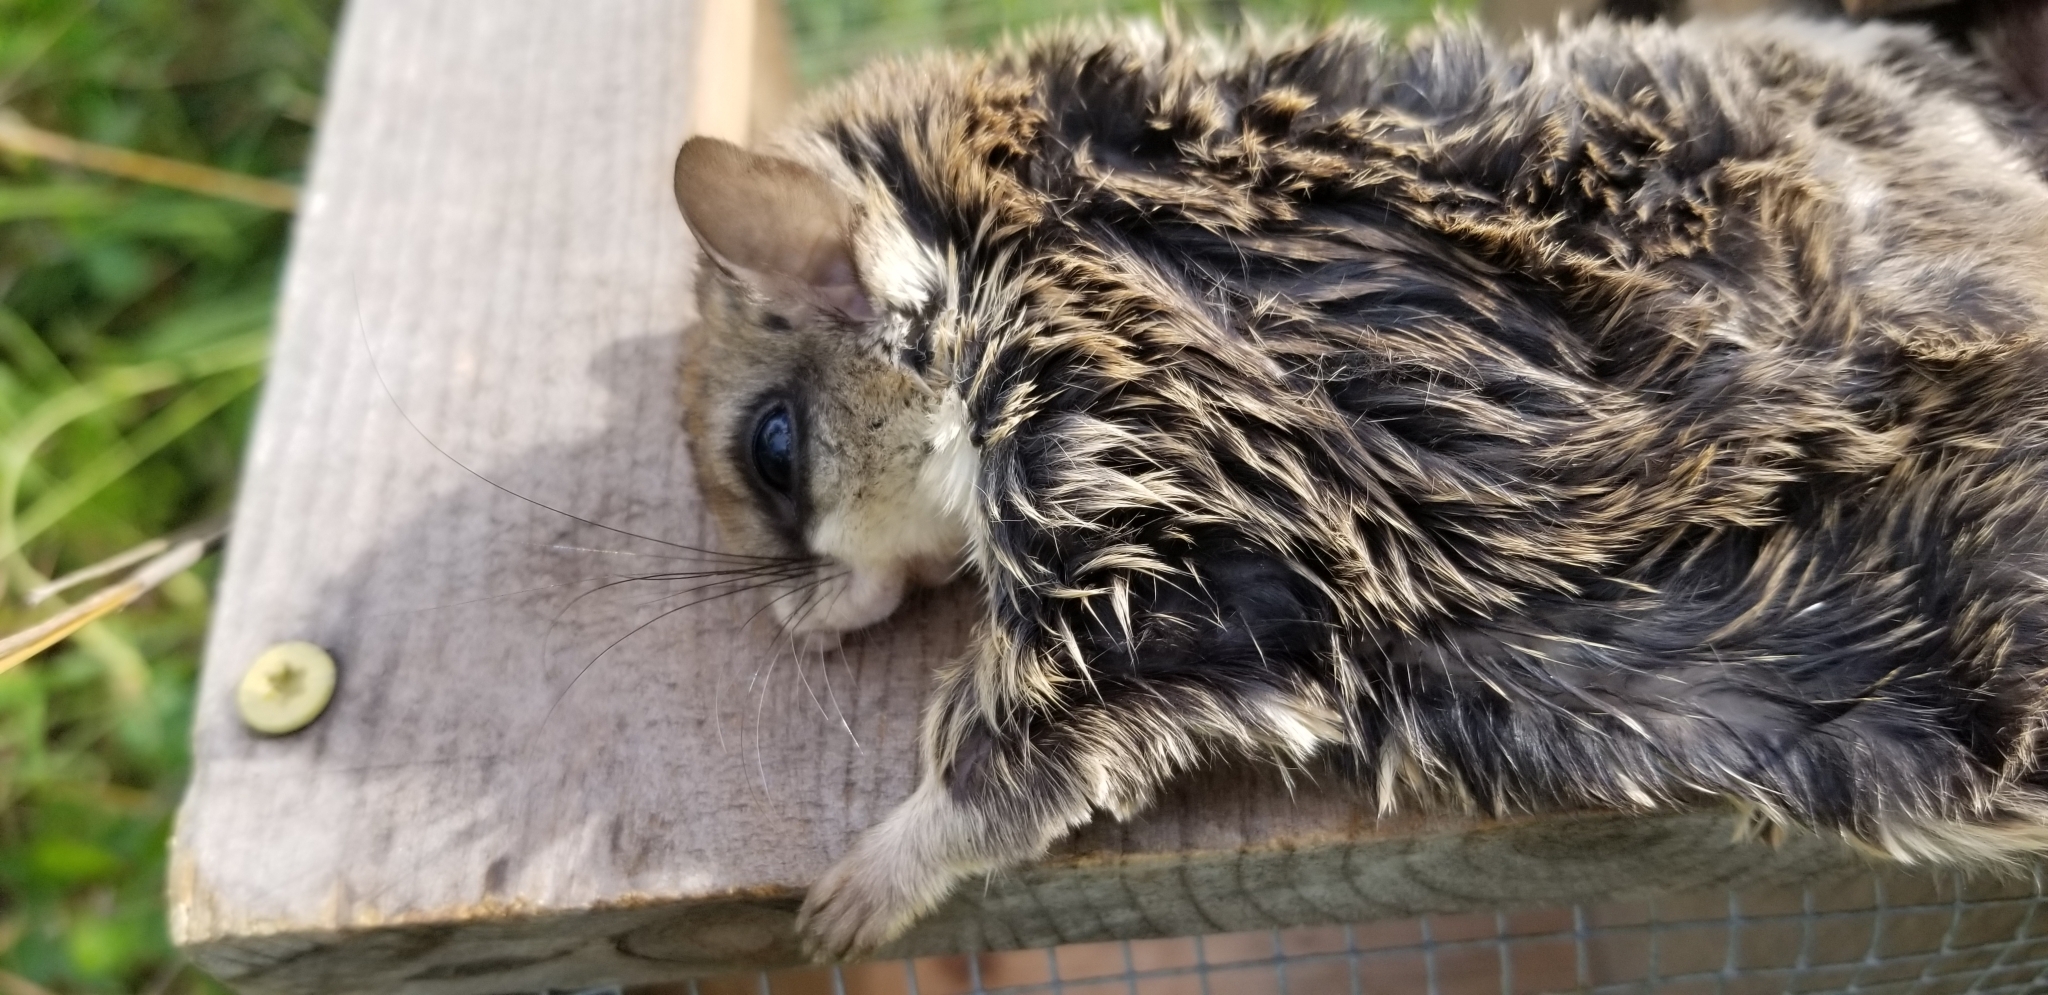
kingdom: Animalia
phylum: Chordata
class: Mammalia
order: Rodentia
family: Sciuridae
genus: Glaucomys
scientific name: Glaucomys volans
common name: Southern flying squirrel
